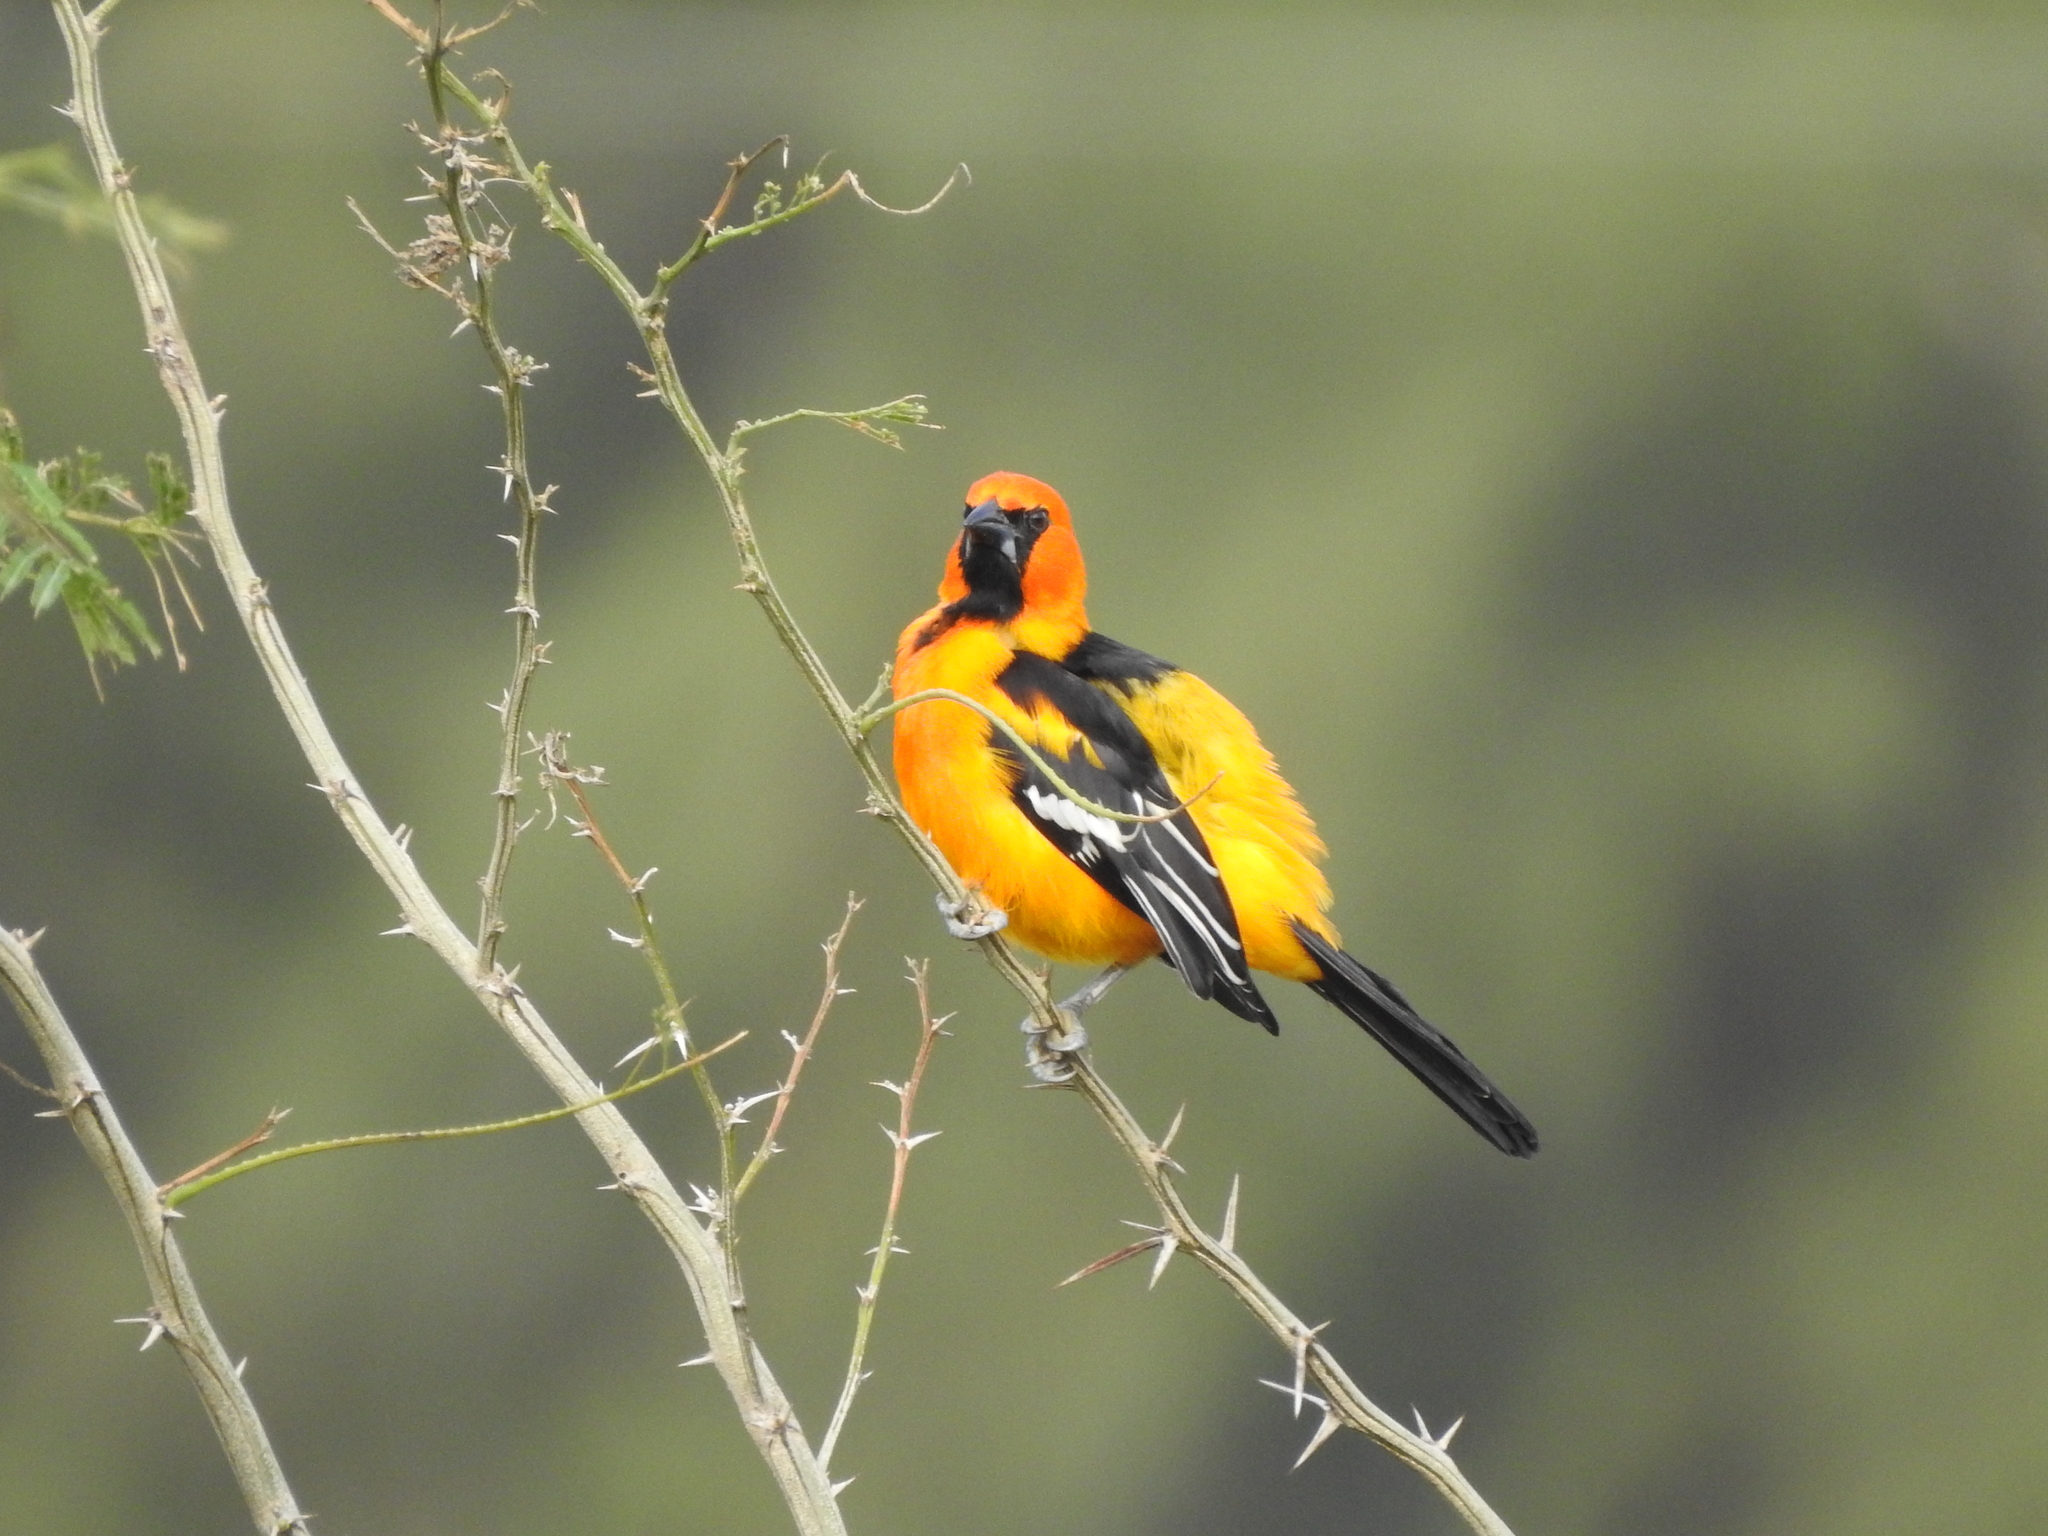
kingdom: Animalia
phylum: Chordata
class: Aves
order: Passeriformes
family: Icteridae
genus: Icterus
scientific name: Icterus gularis
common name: Altamira oriole
